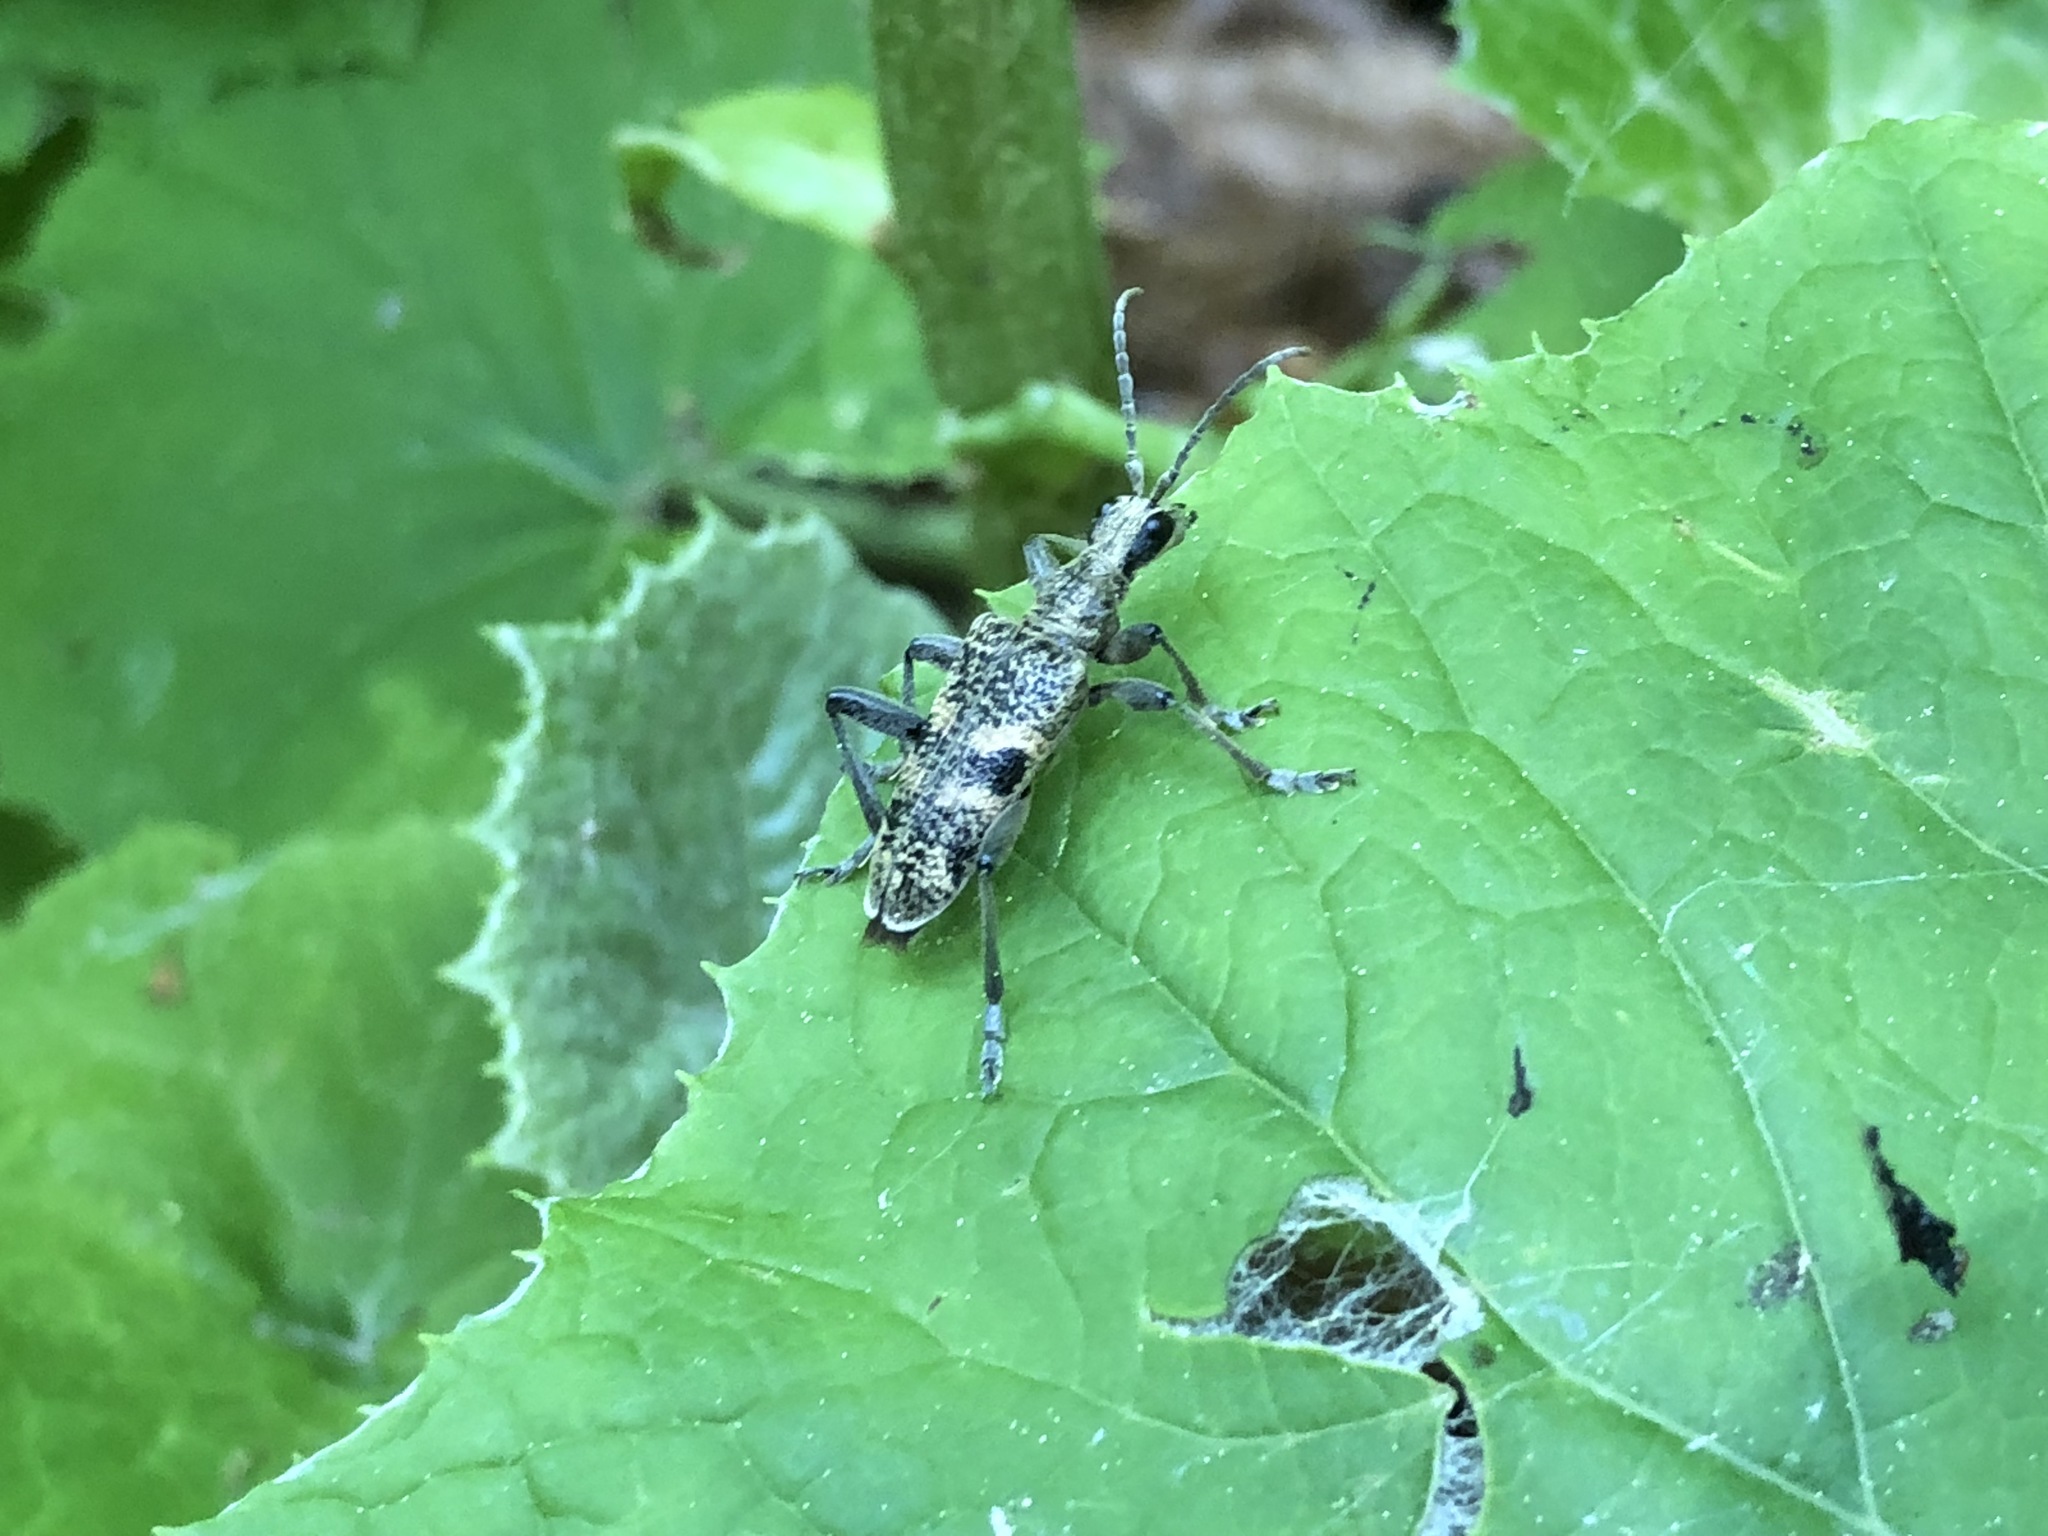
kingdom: Animalia
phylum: Arthropoda
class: Insecta
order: Coleoptera
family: Cerambycidae
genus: Rhagium
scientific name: Rhagium mordax
